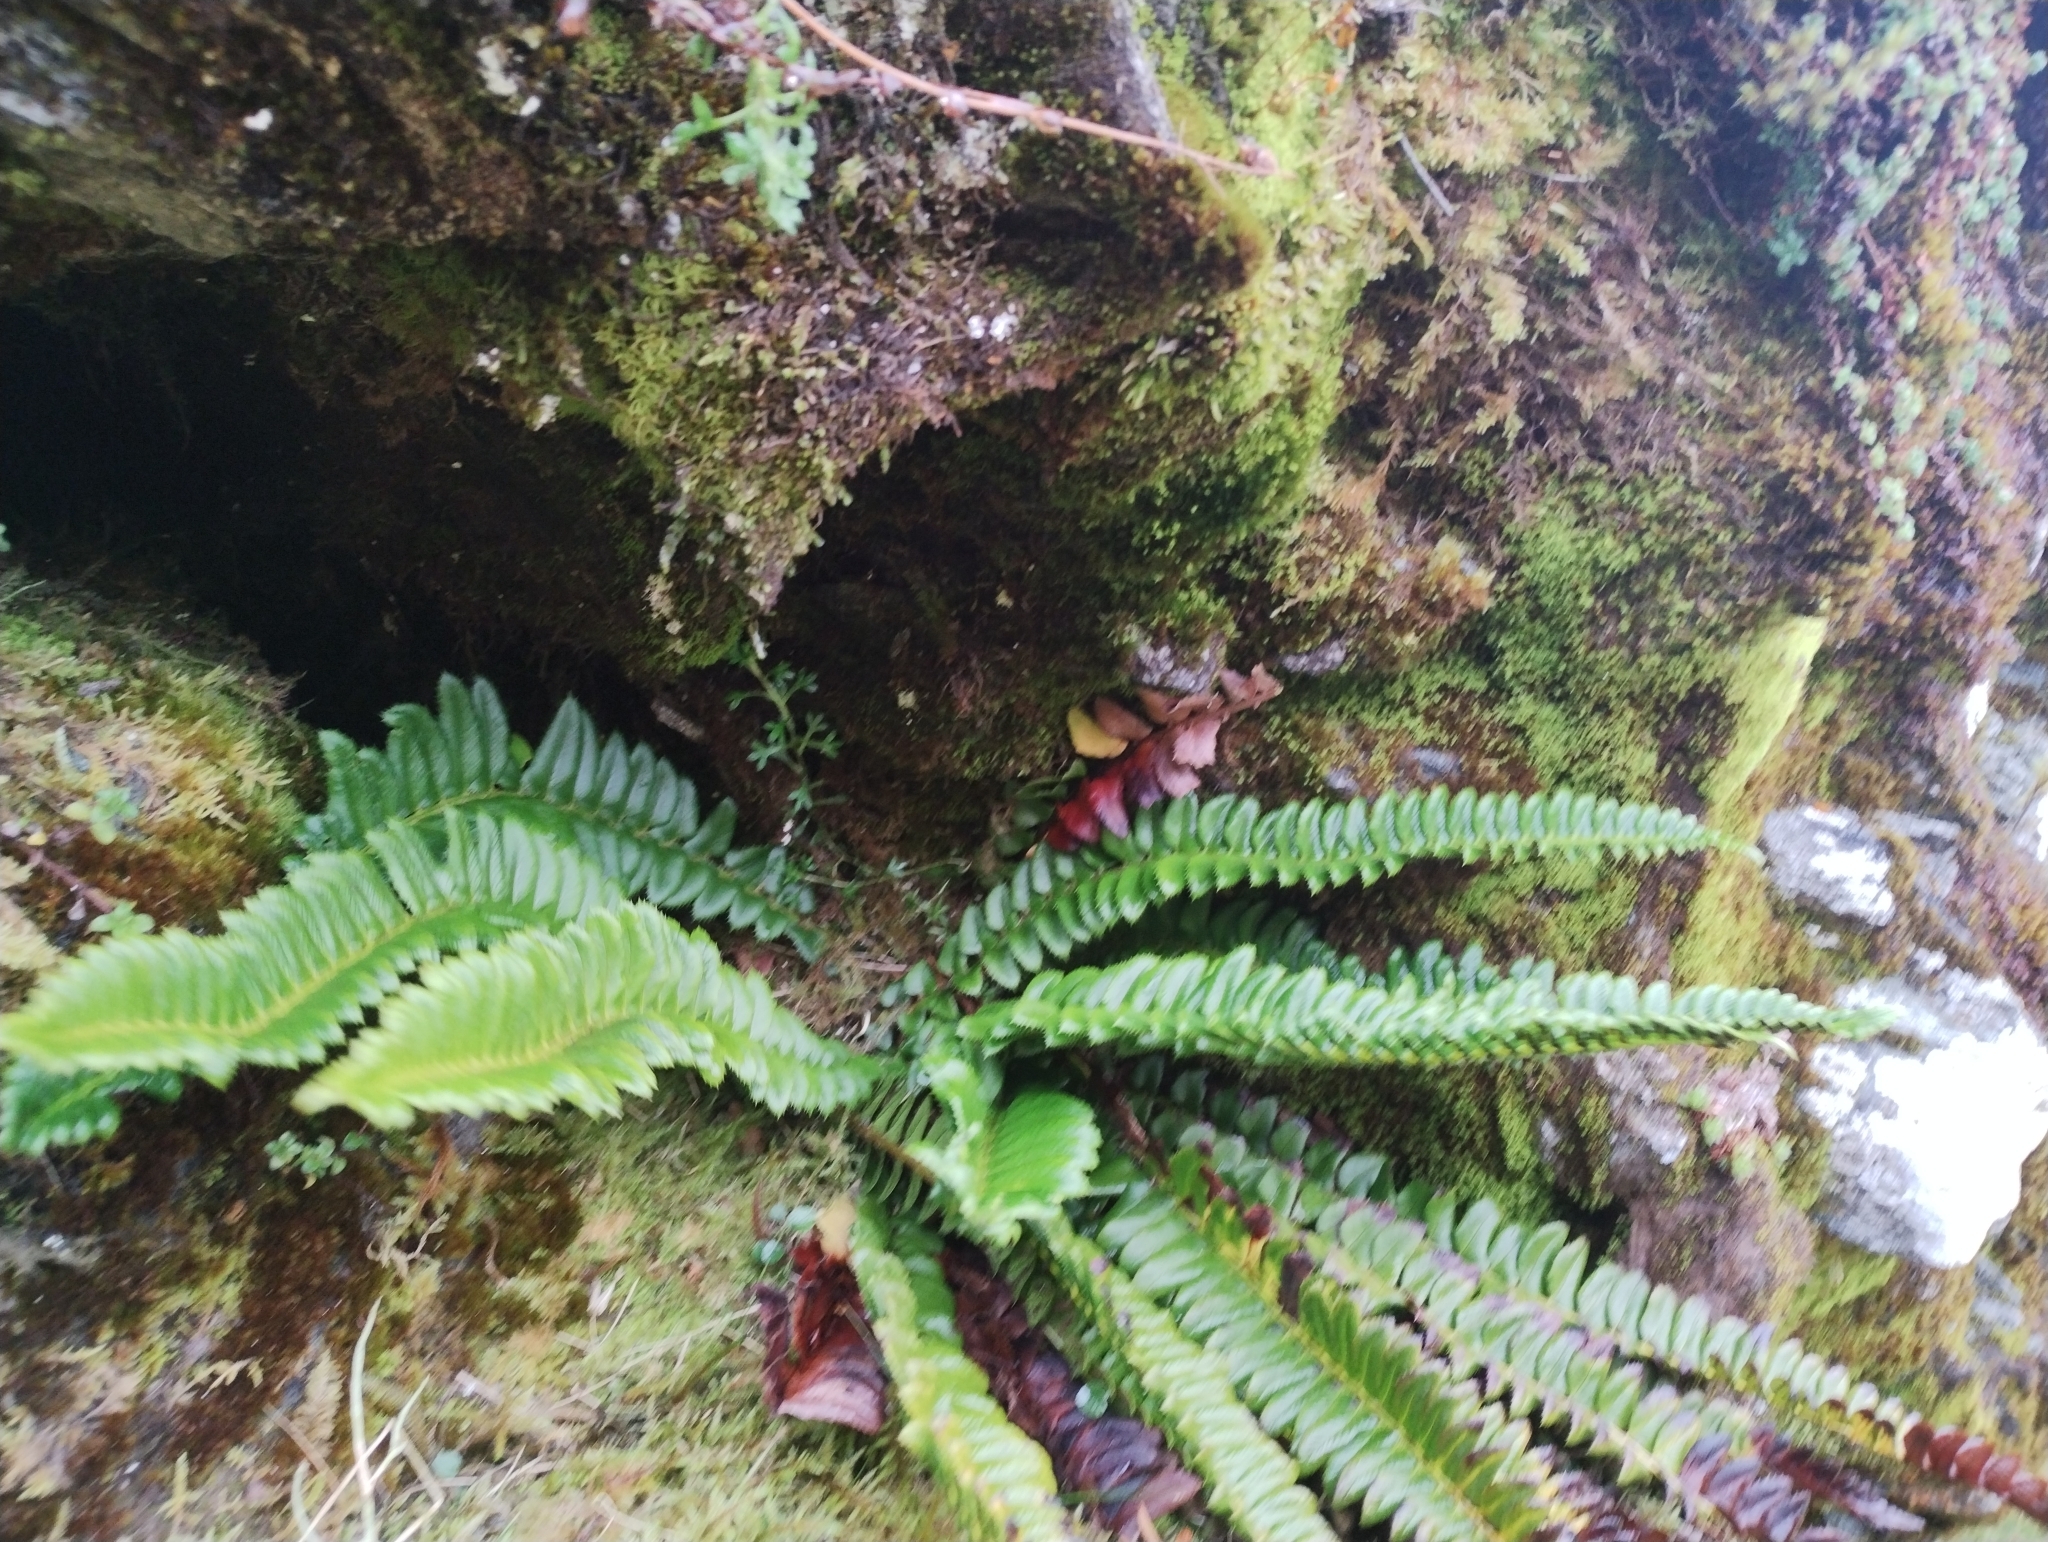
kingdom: Plantae
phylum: Tracheophyta
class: Polypodiopsida
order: Polypodiales
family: Dryopteridaceae
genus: Polystichum
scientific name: Polystichum lonchitis
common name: Holly fern
